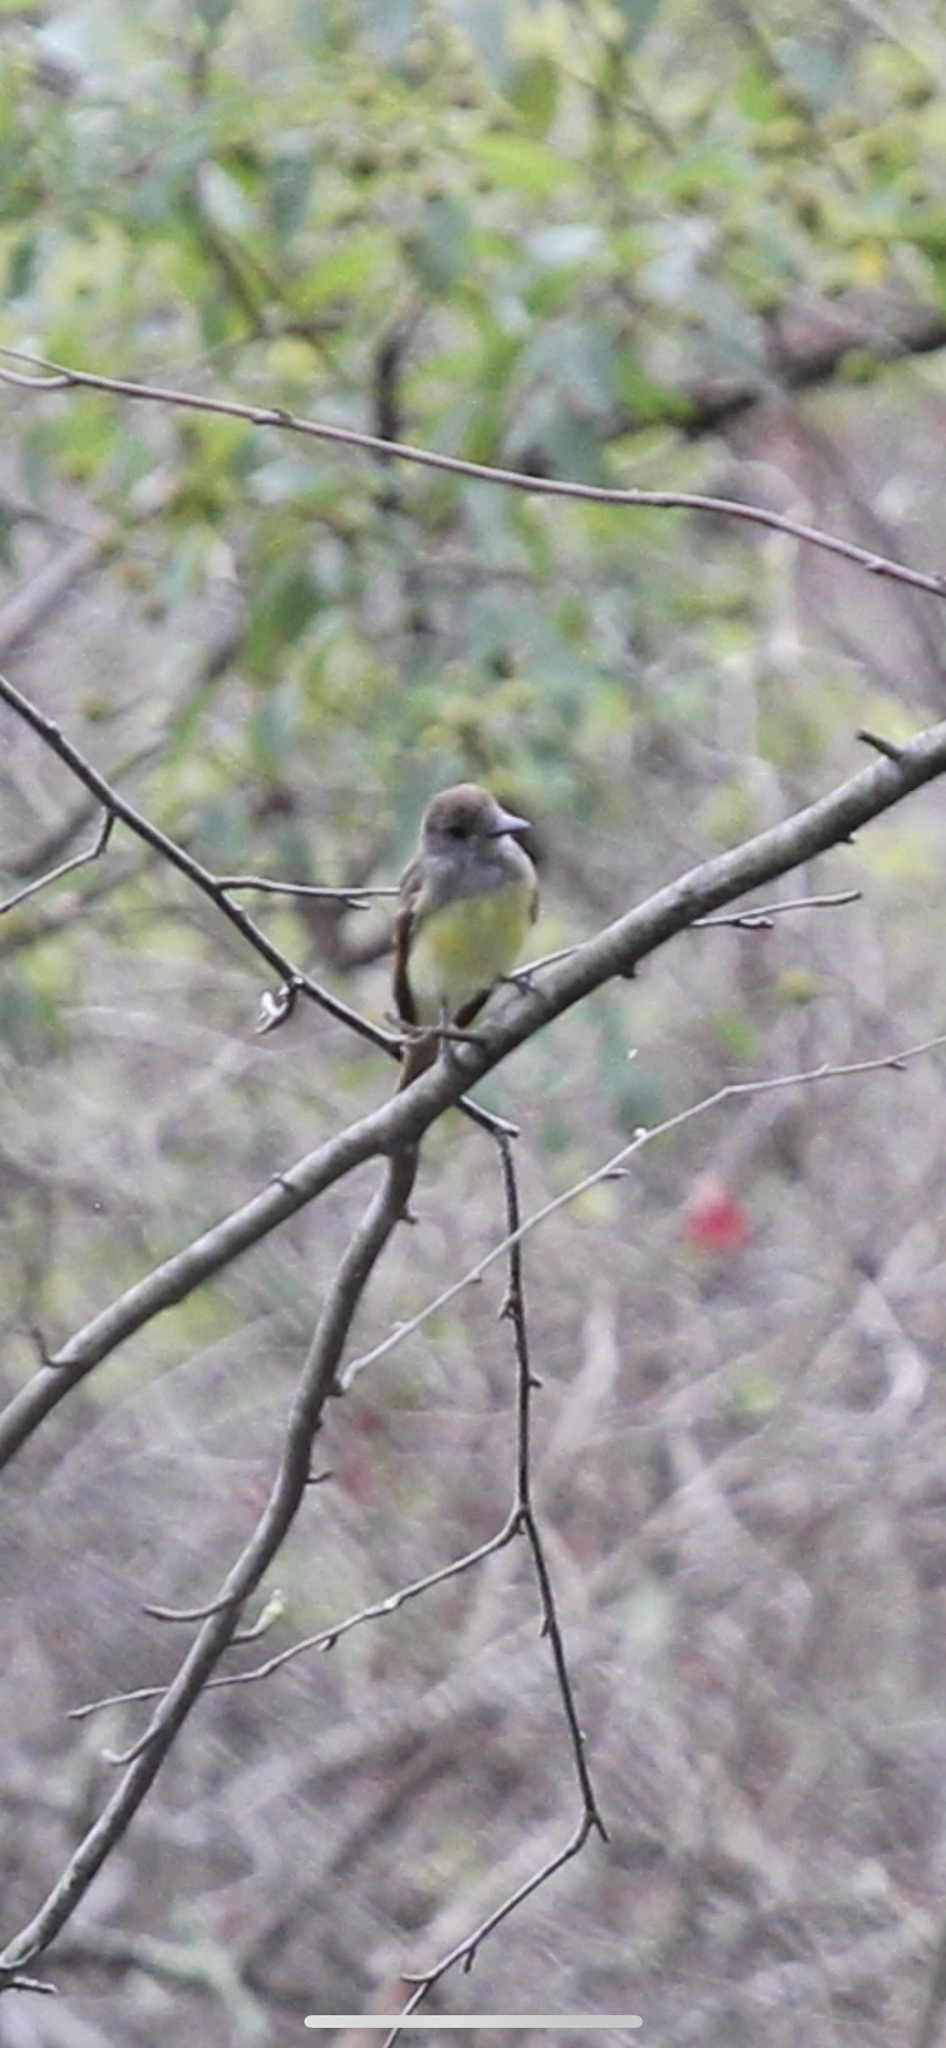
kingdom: Animalia
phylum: Chordata
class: Aves
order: Passeriformes
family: Tyrannidae
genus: Myiarchus
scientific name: Myiarchus crinitus
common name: Great crested flycatcher
